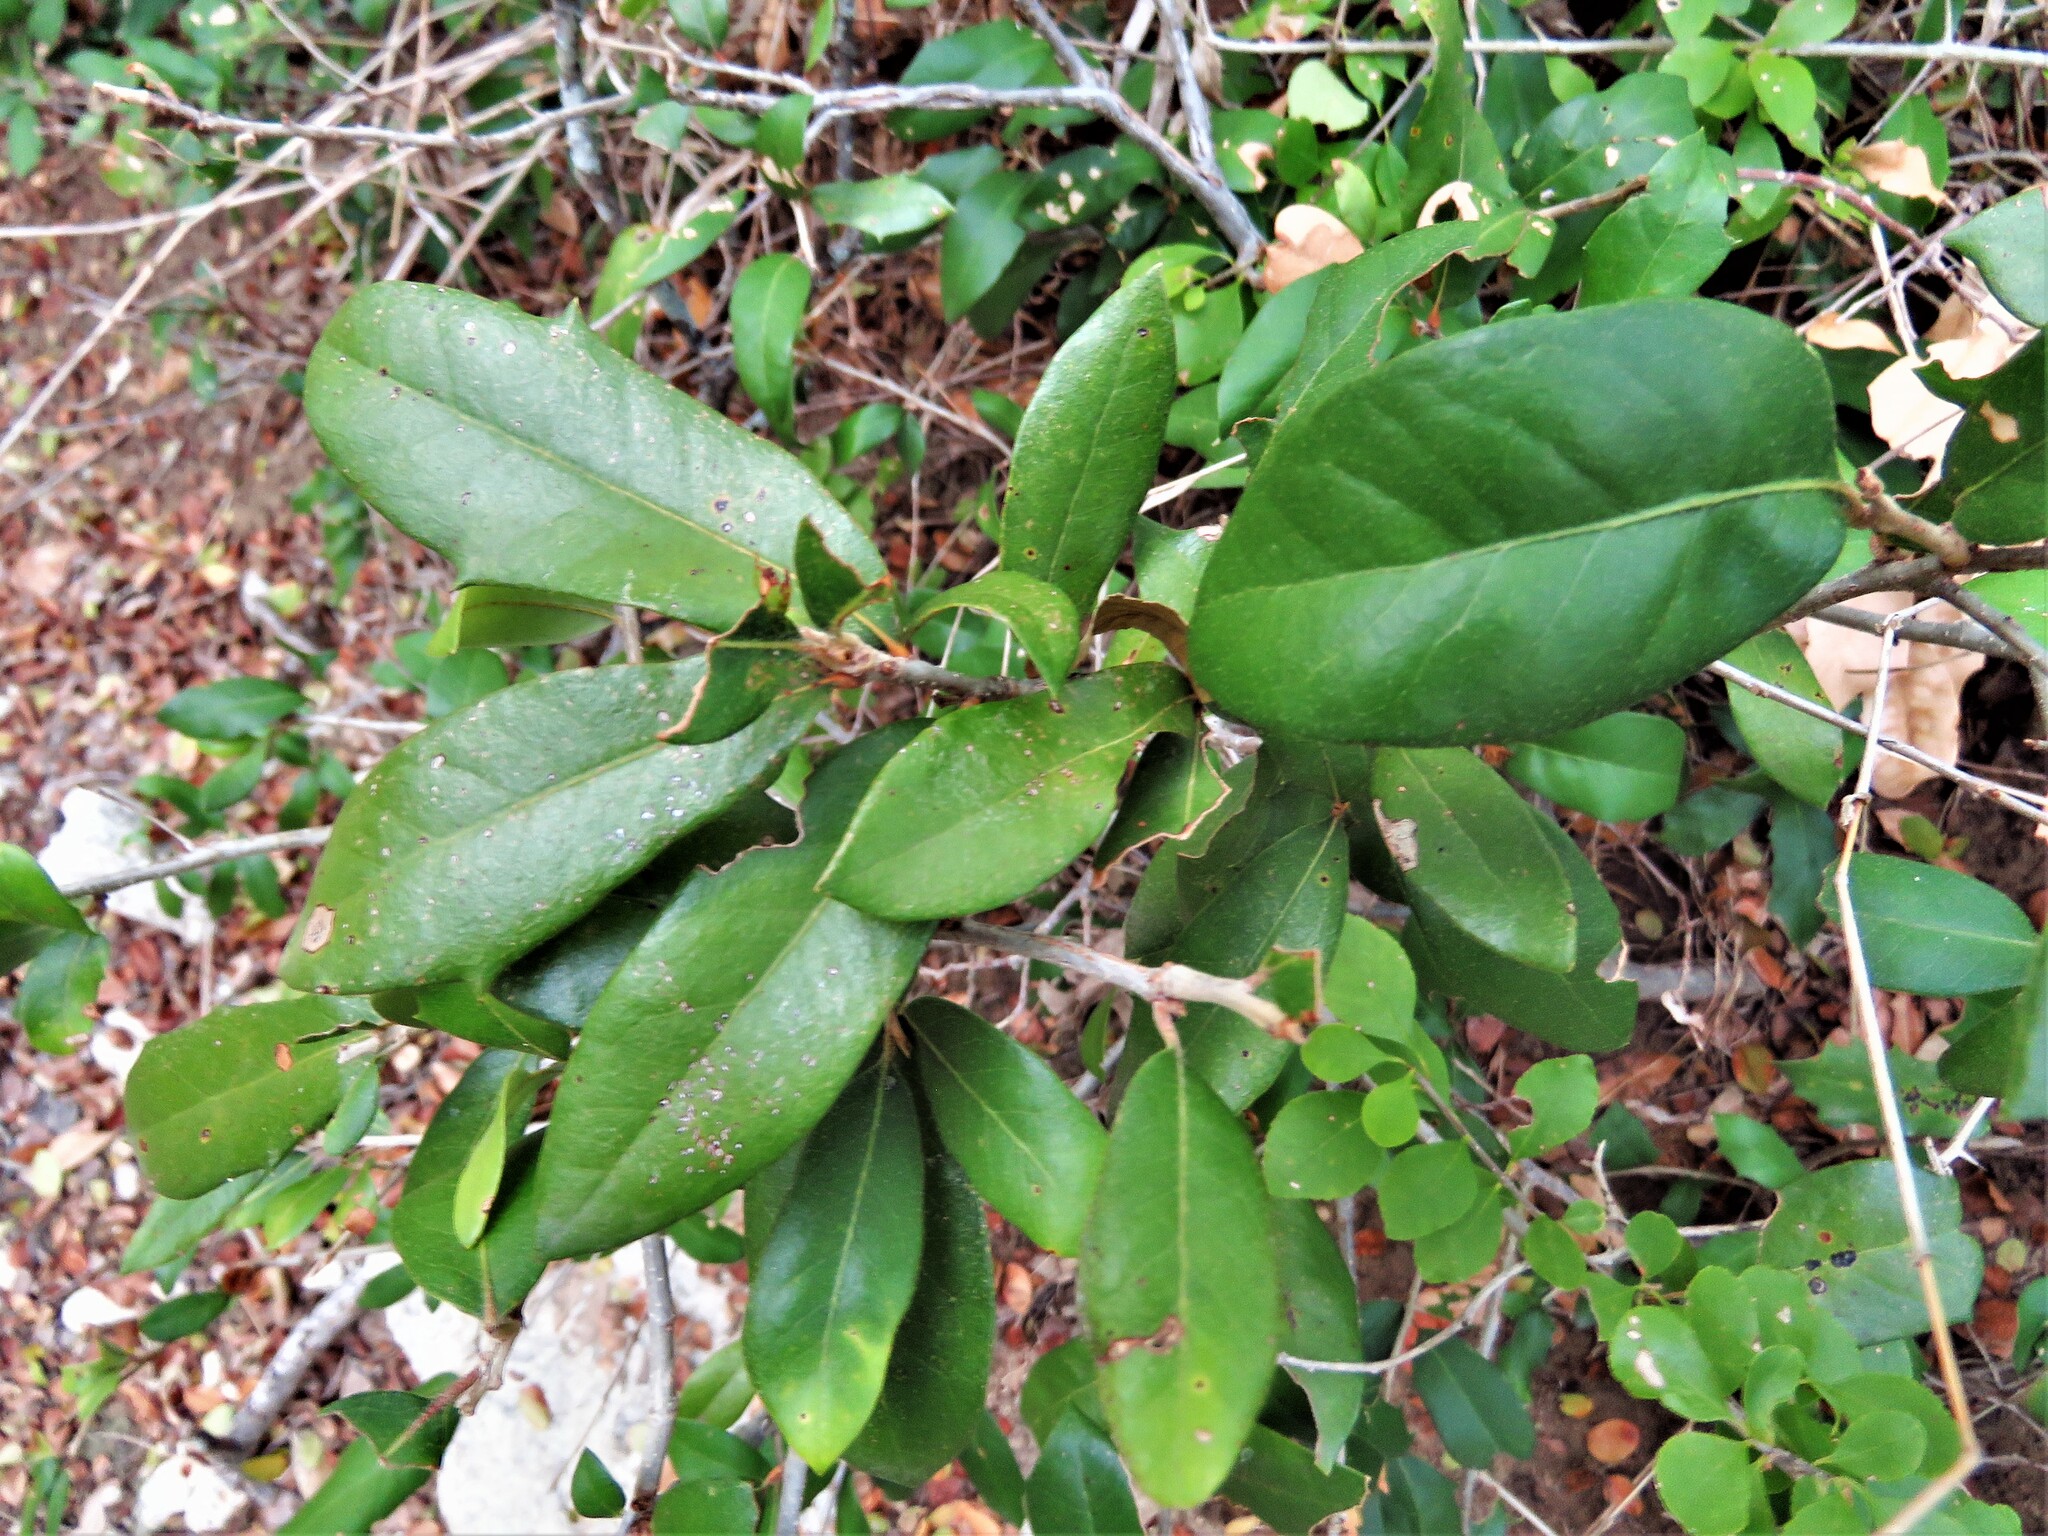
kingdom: Plantae
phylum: Tracheophyta
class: Magnoliopsida
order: Fagales
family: Fagaceae
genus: Quercus
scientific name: Quercus fusiformis
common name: Texas live oak
